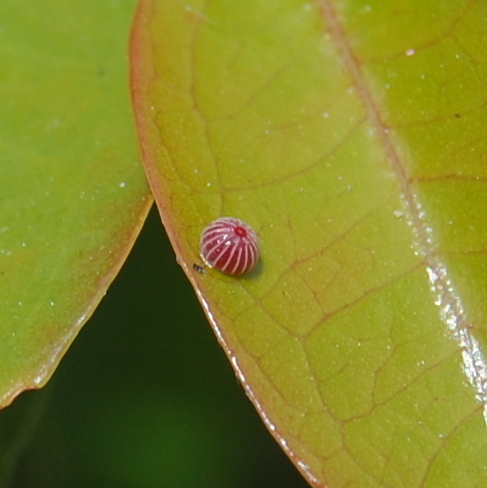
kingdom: Animalia
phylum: Arthropoda
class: Insecta
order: Lepidoptera
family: Hesperiidae
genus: Phocides
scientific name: Phocides polybius
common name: Guava skipper
